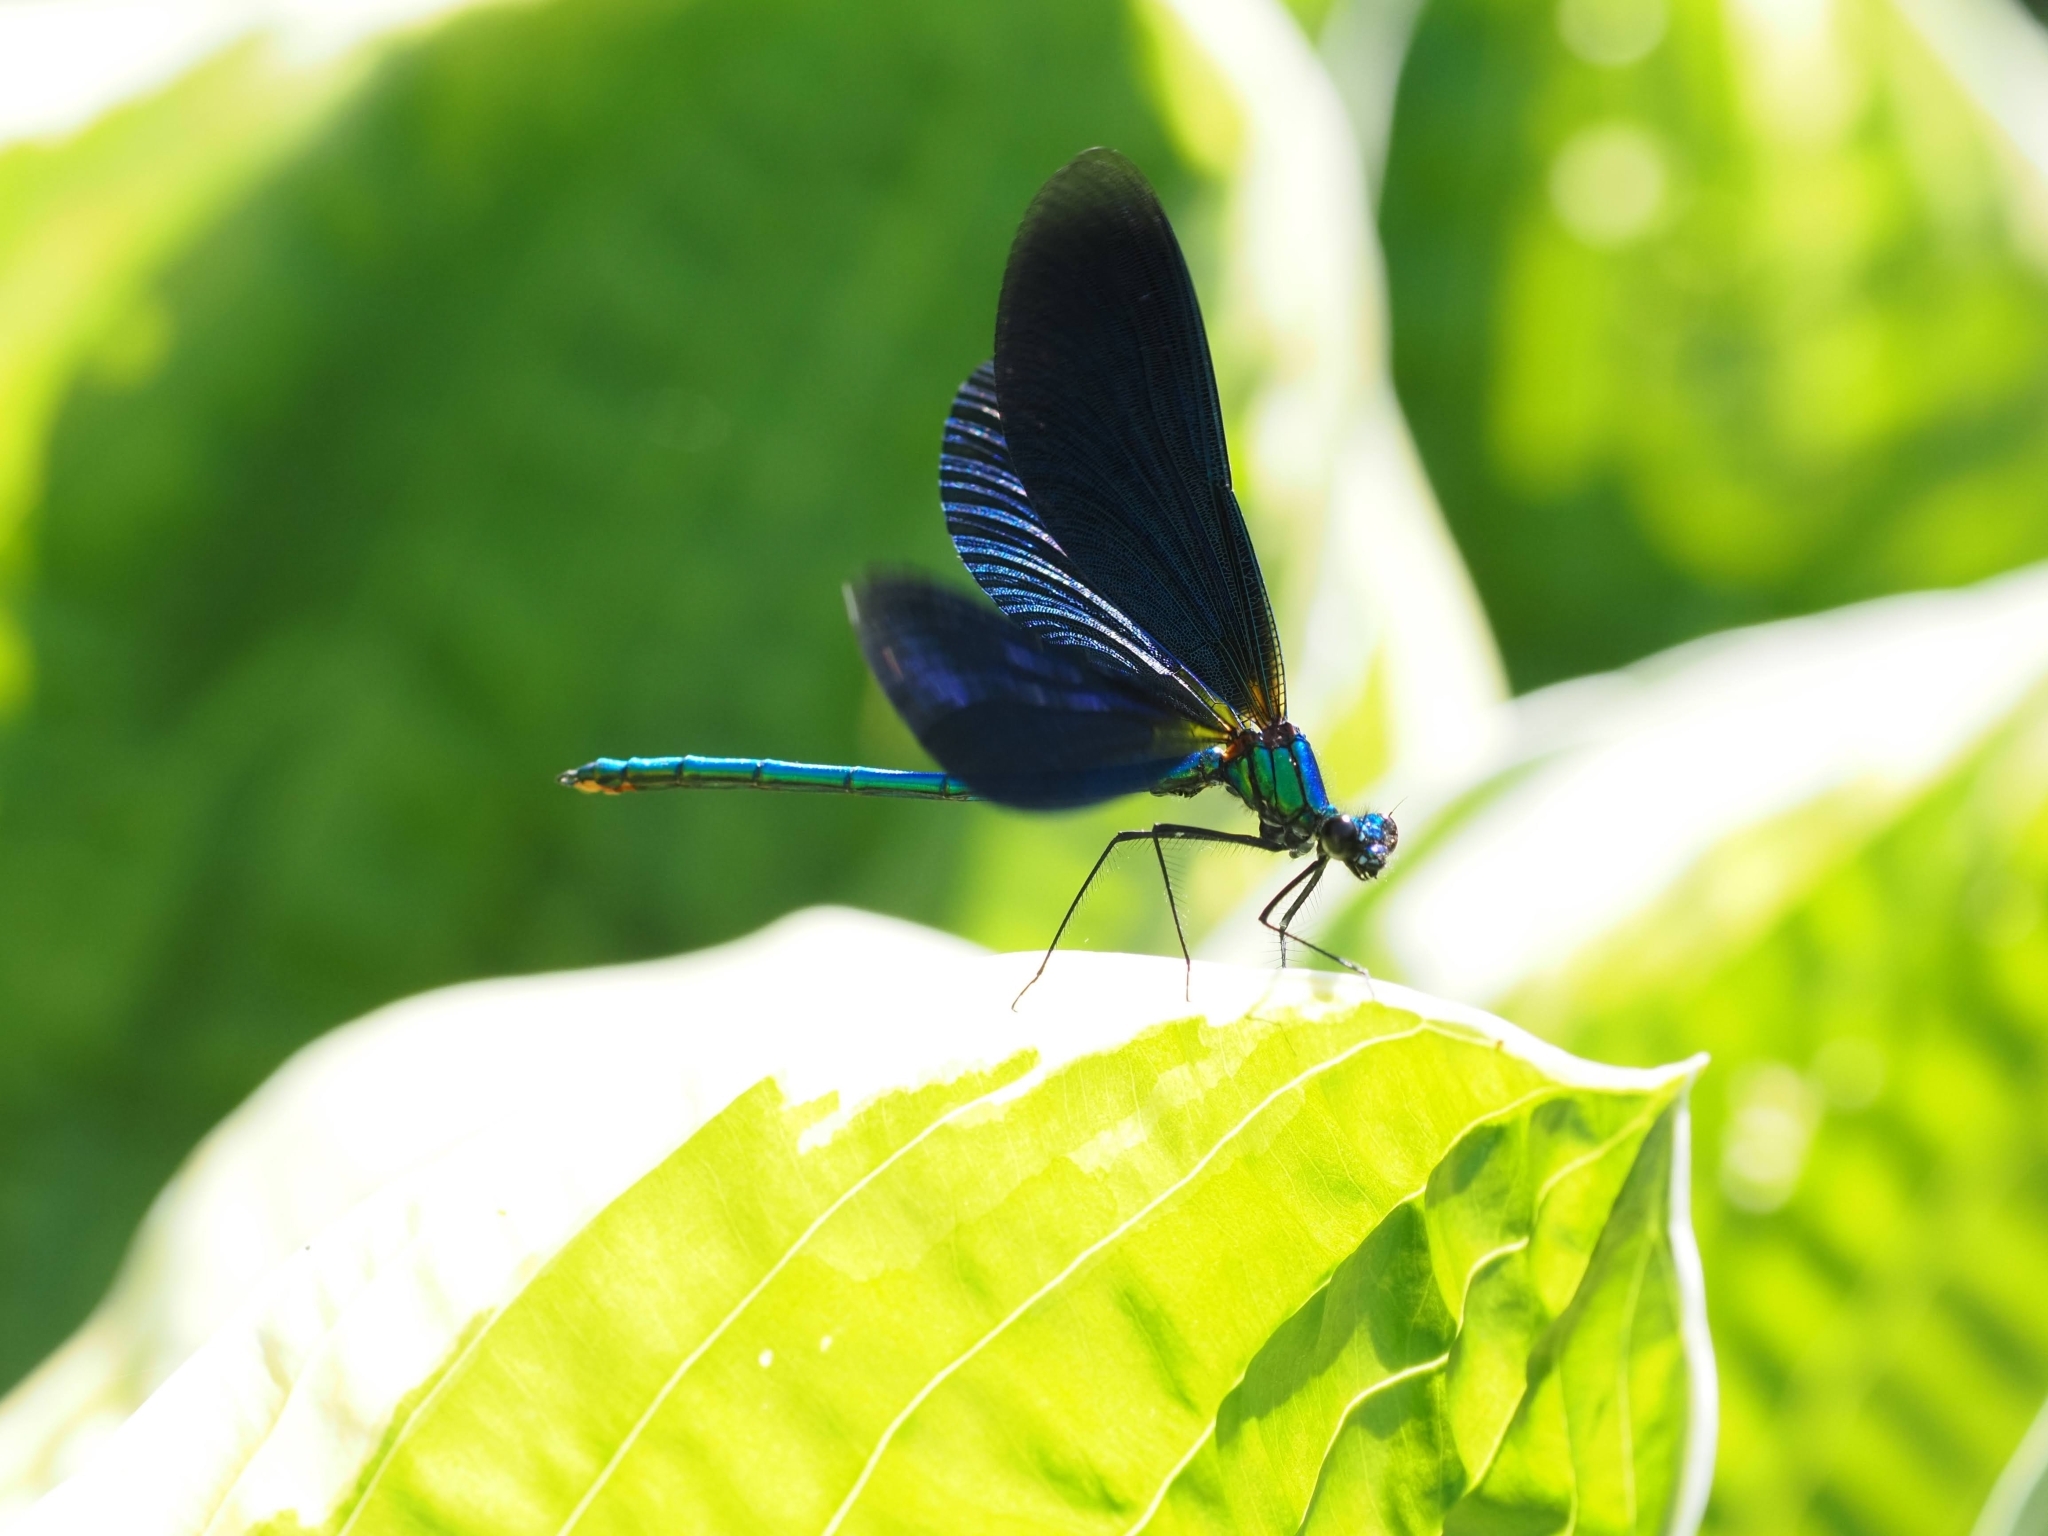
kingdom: Animalia
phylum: Arthropoda
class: Insecta
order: Odonata
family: Calopterygidae
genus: Calopteryx
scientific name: Calopteryx virgo
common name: Beautiful demoiselle
